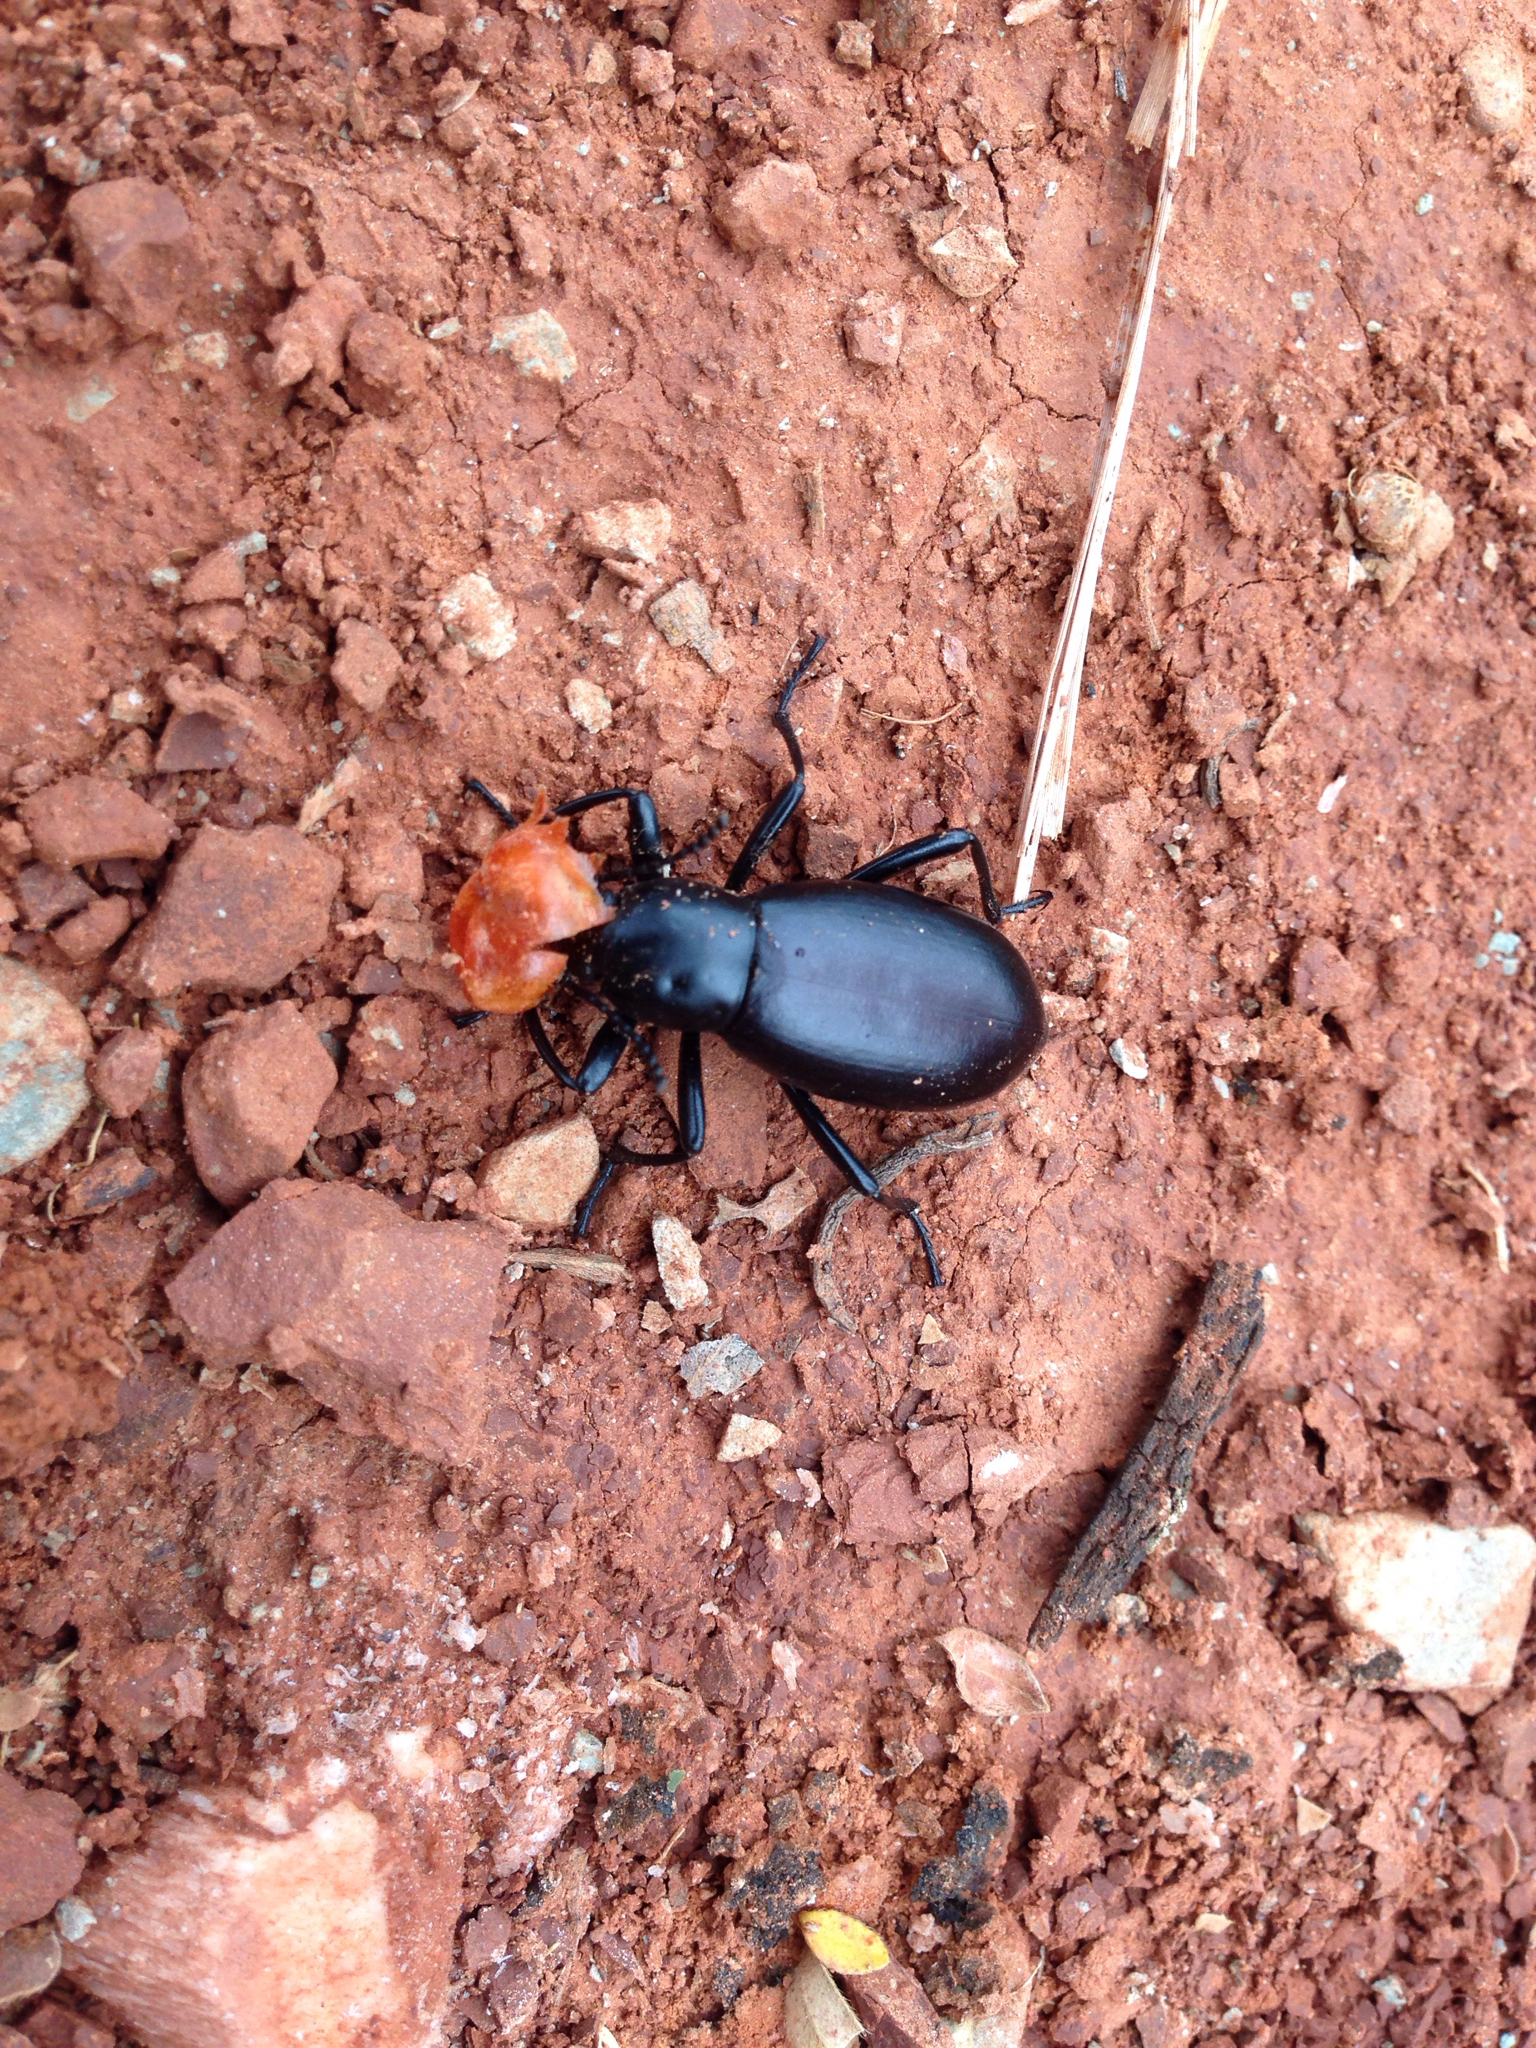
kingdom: Animalia
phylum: Arthropoda
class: Insecta
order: Coleoptera
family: Tenebrionidae
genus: Eleodes
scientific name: Eleodes longicollis
